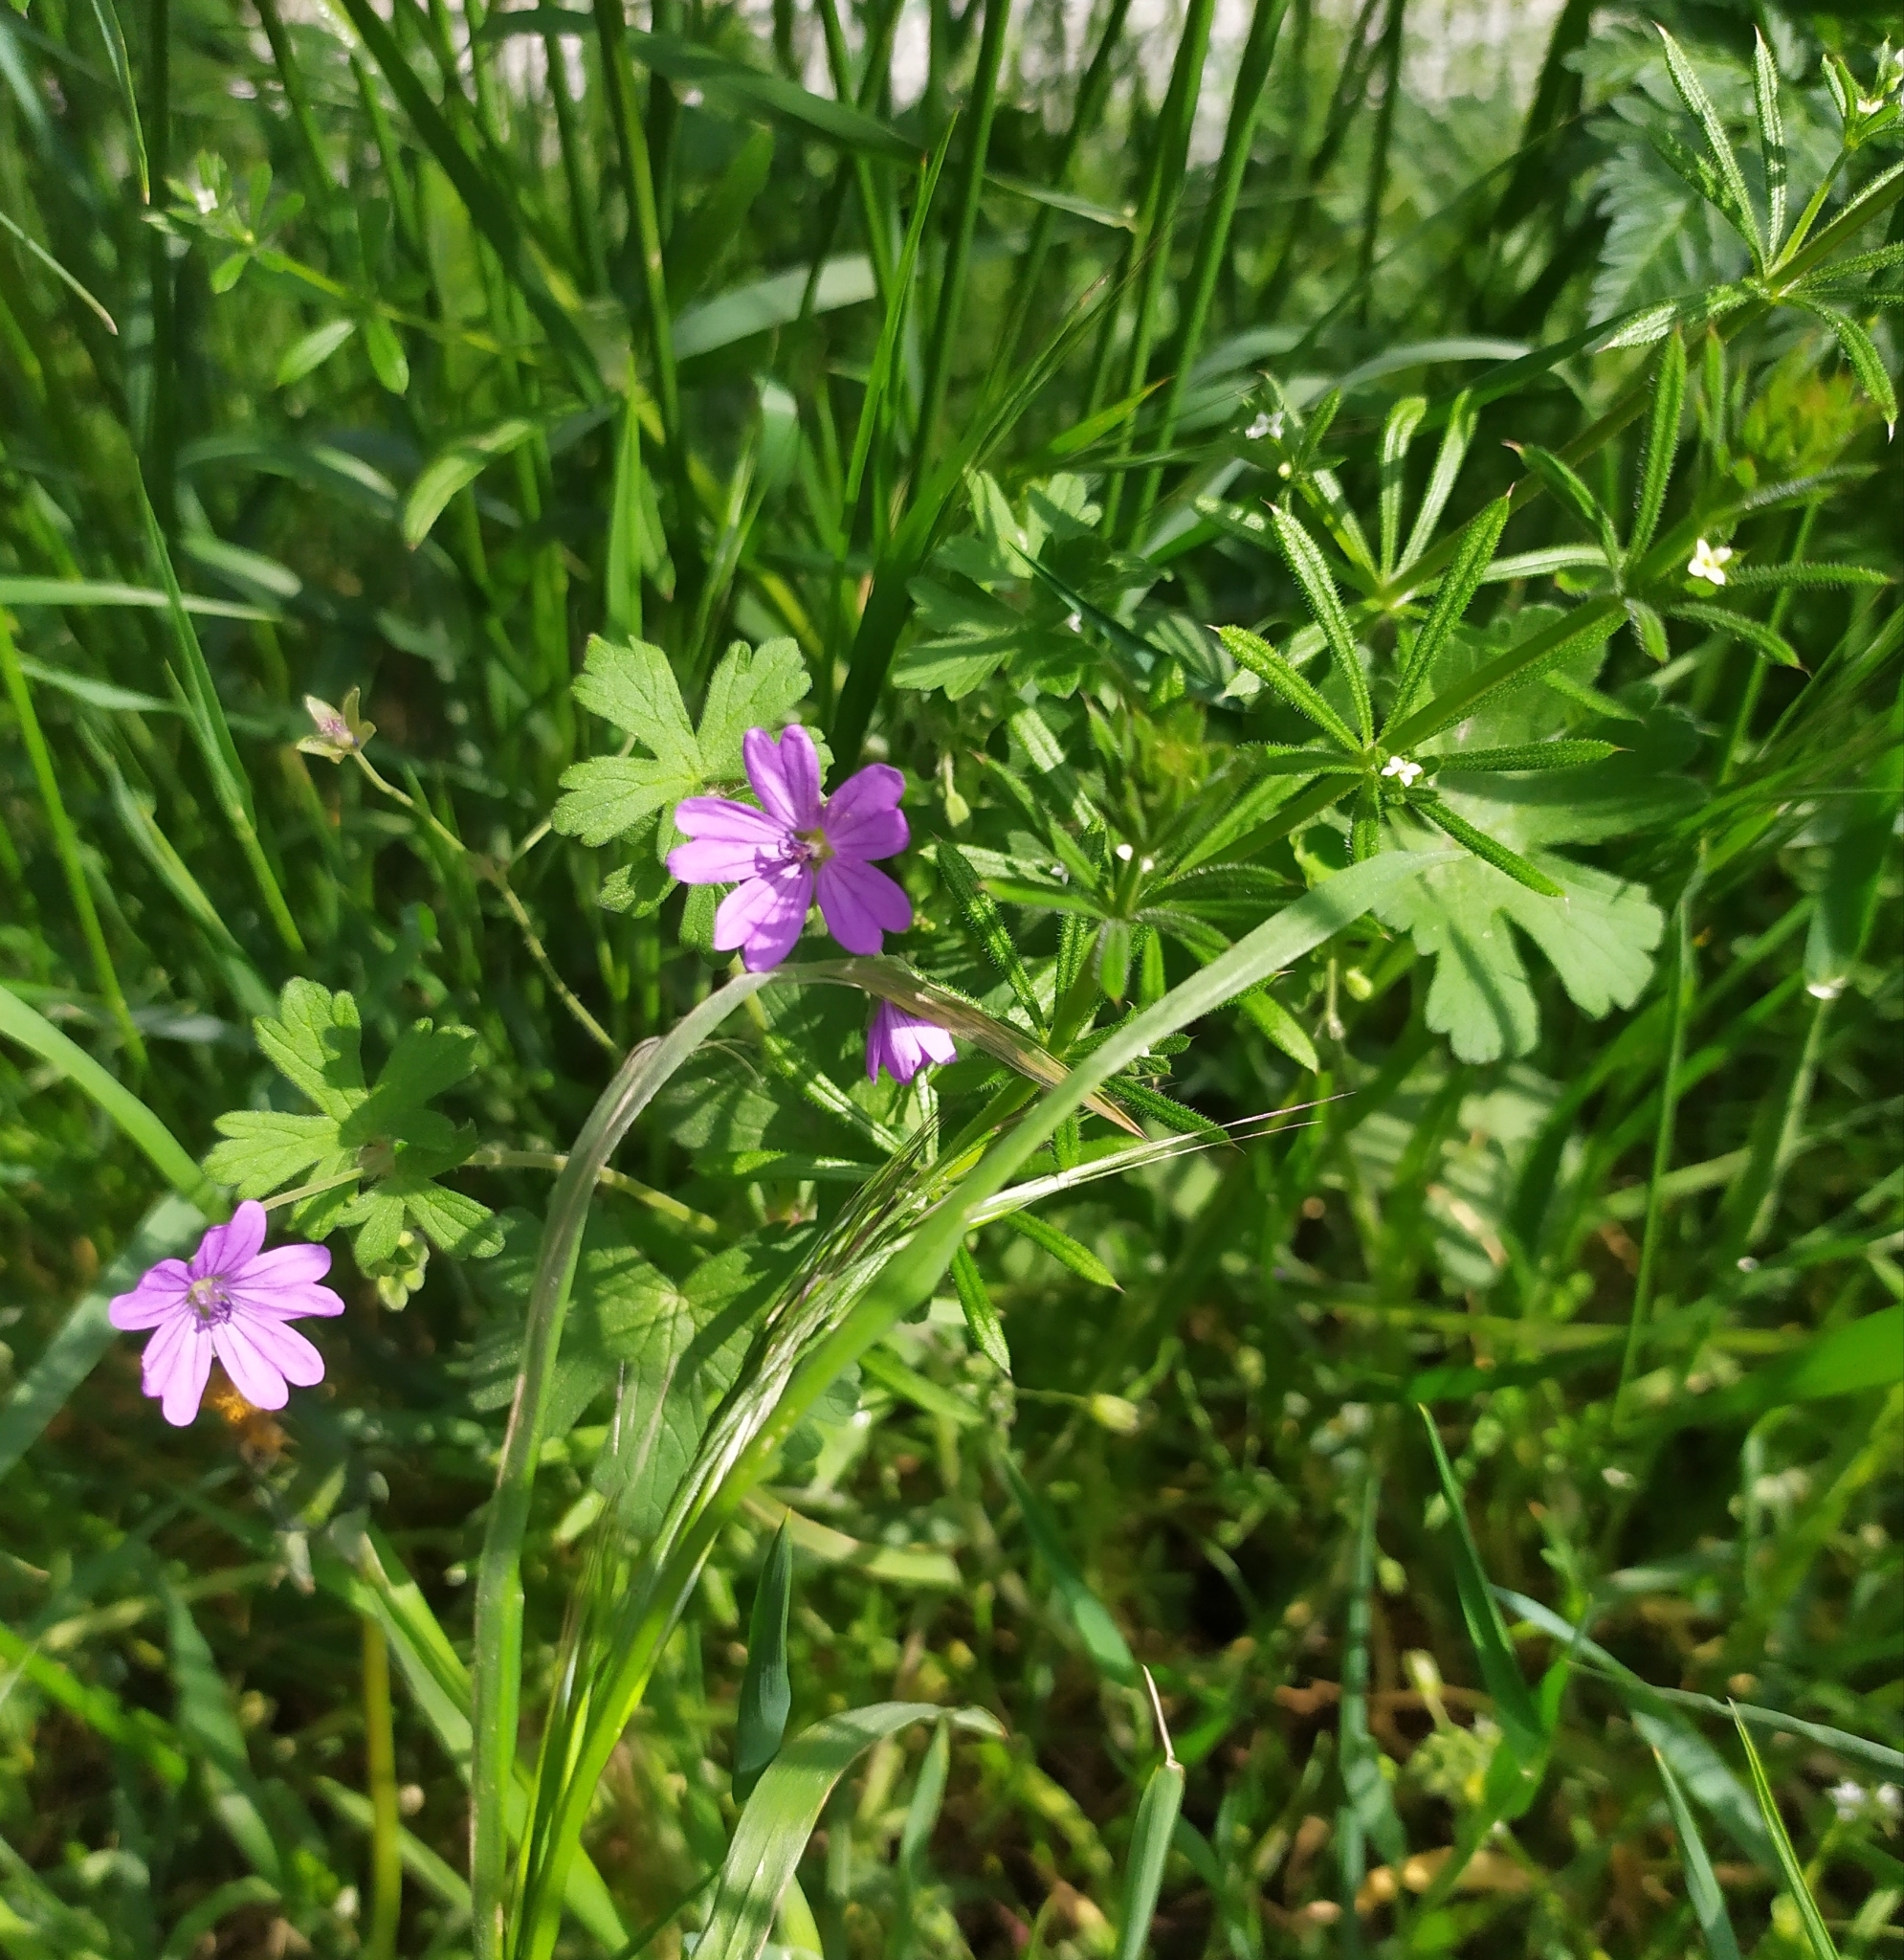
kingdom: Plantae
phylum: Tracheophyta
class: Magnoliopsida
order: Geraniales
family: Geraniaceae
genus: Geranium
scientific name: Geranium pyrenaicum
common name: Hedgerow crane's-bill
